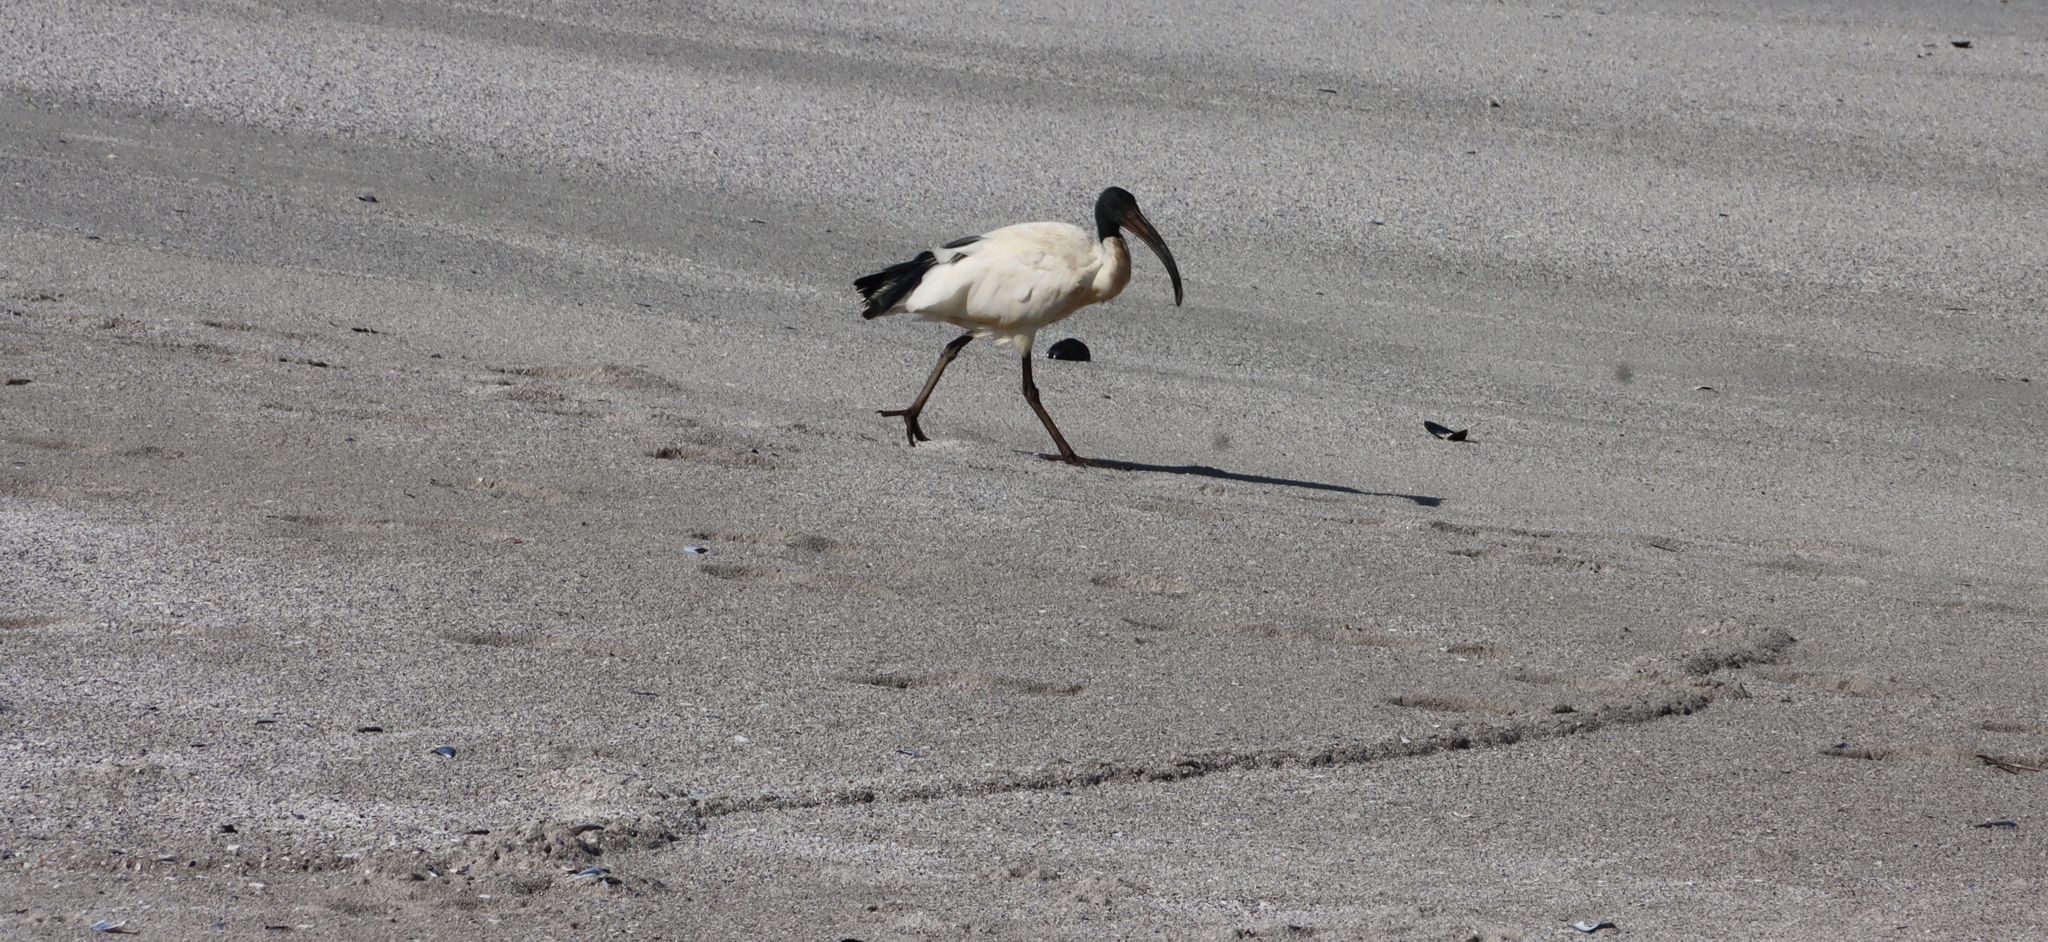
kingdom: Animalia
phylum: Chordata
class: Aves
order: Pelecaniformes
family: Threskiornithidae
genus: Threskiornis
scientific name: Threskiornis aethiopicus
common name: Sacred ibis
